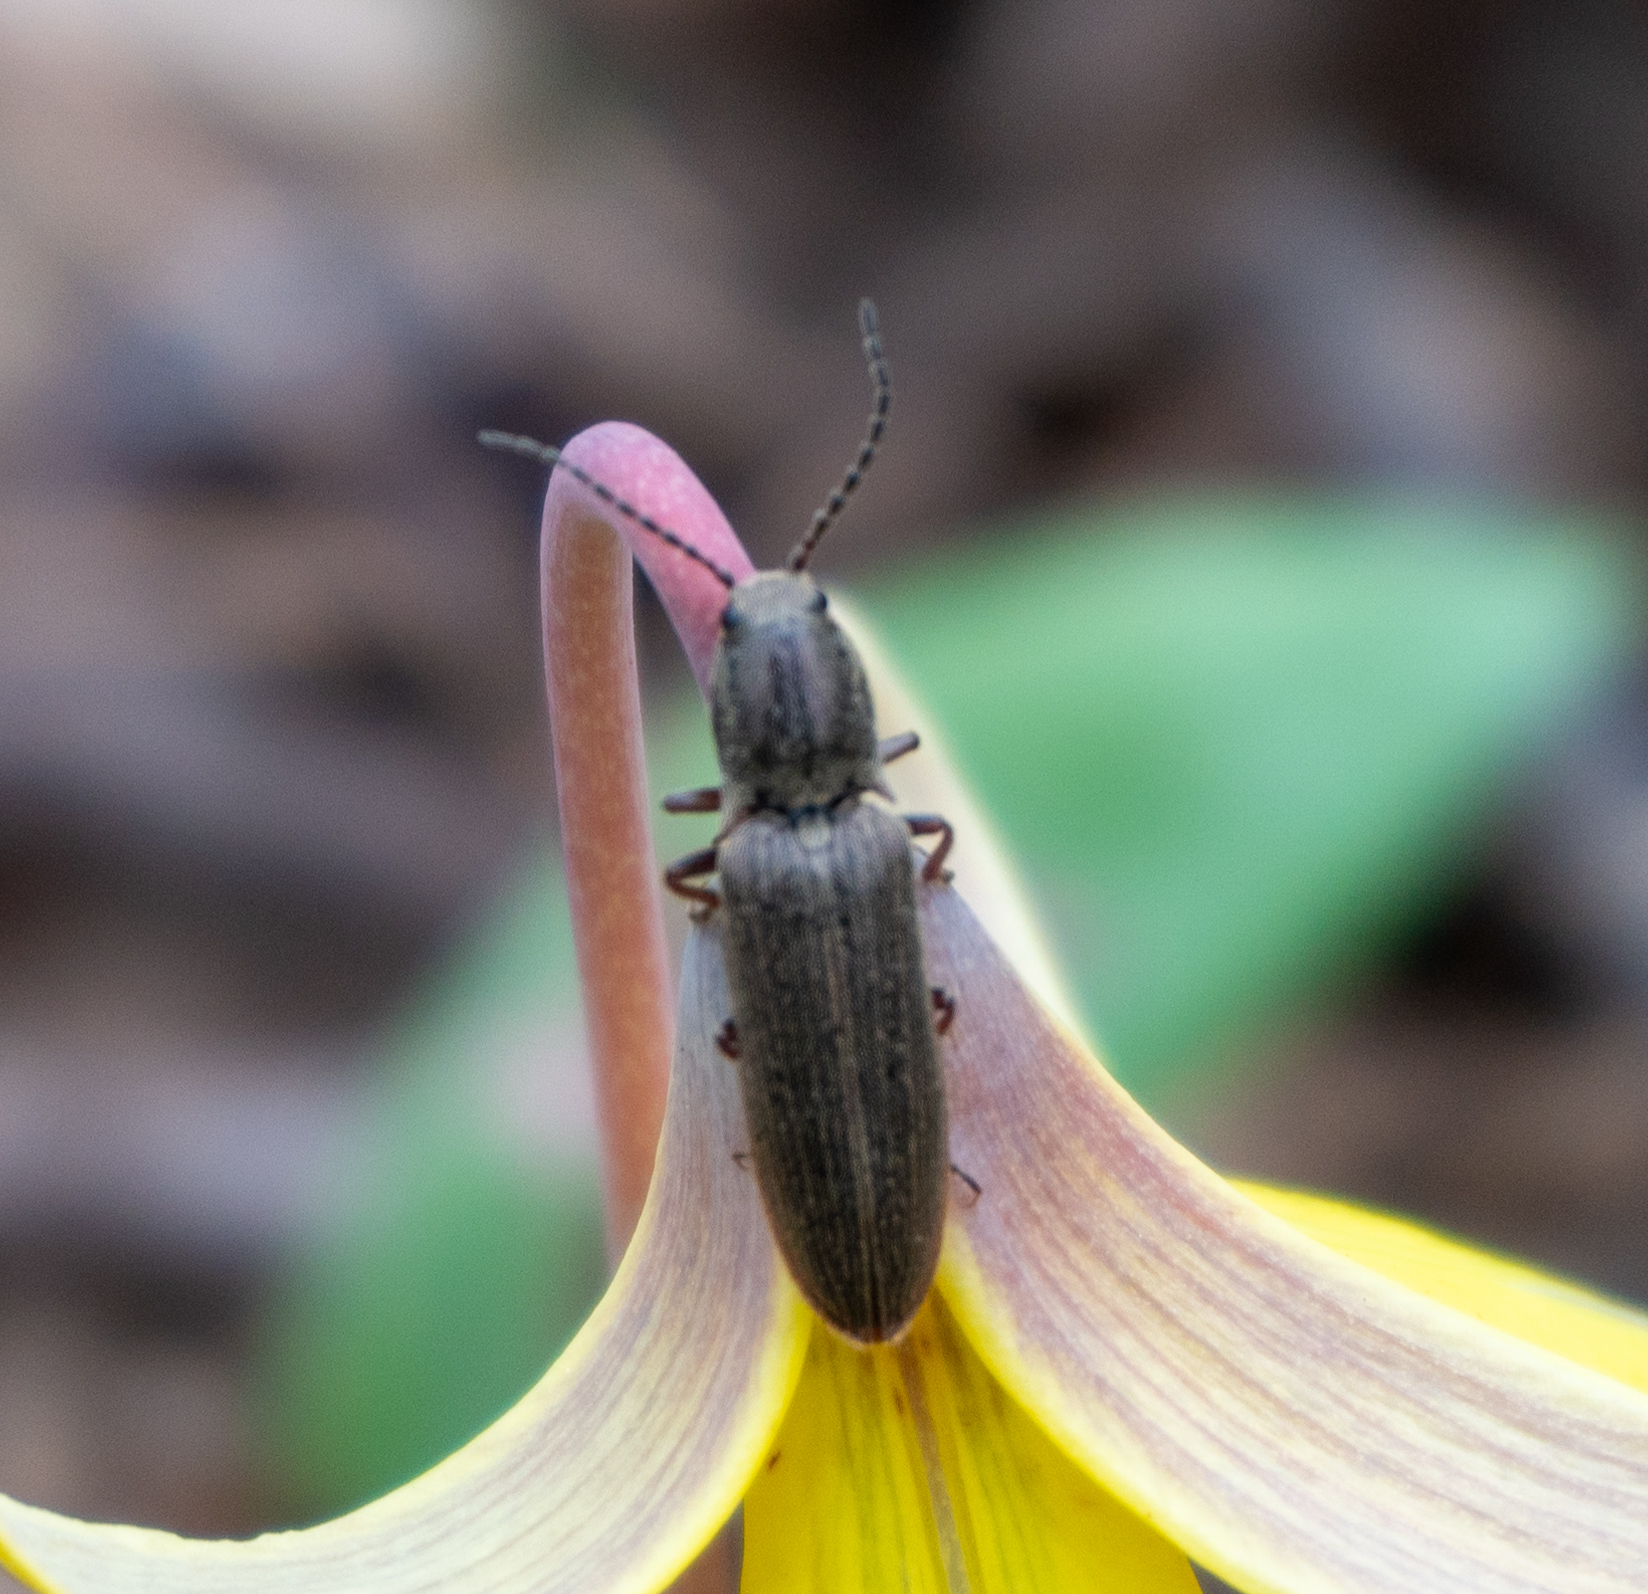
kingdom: Animalia
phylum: Arthropoda
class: Insecta
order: Coleoptera
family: Elateridae
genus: Sylvanelater
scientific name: Sylvanelater cylindriformis
